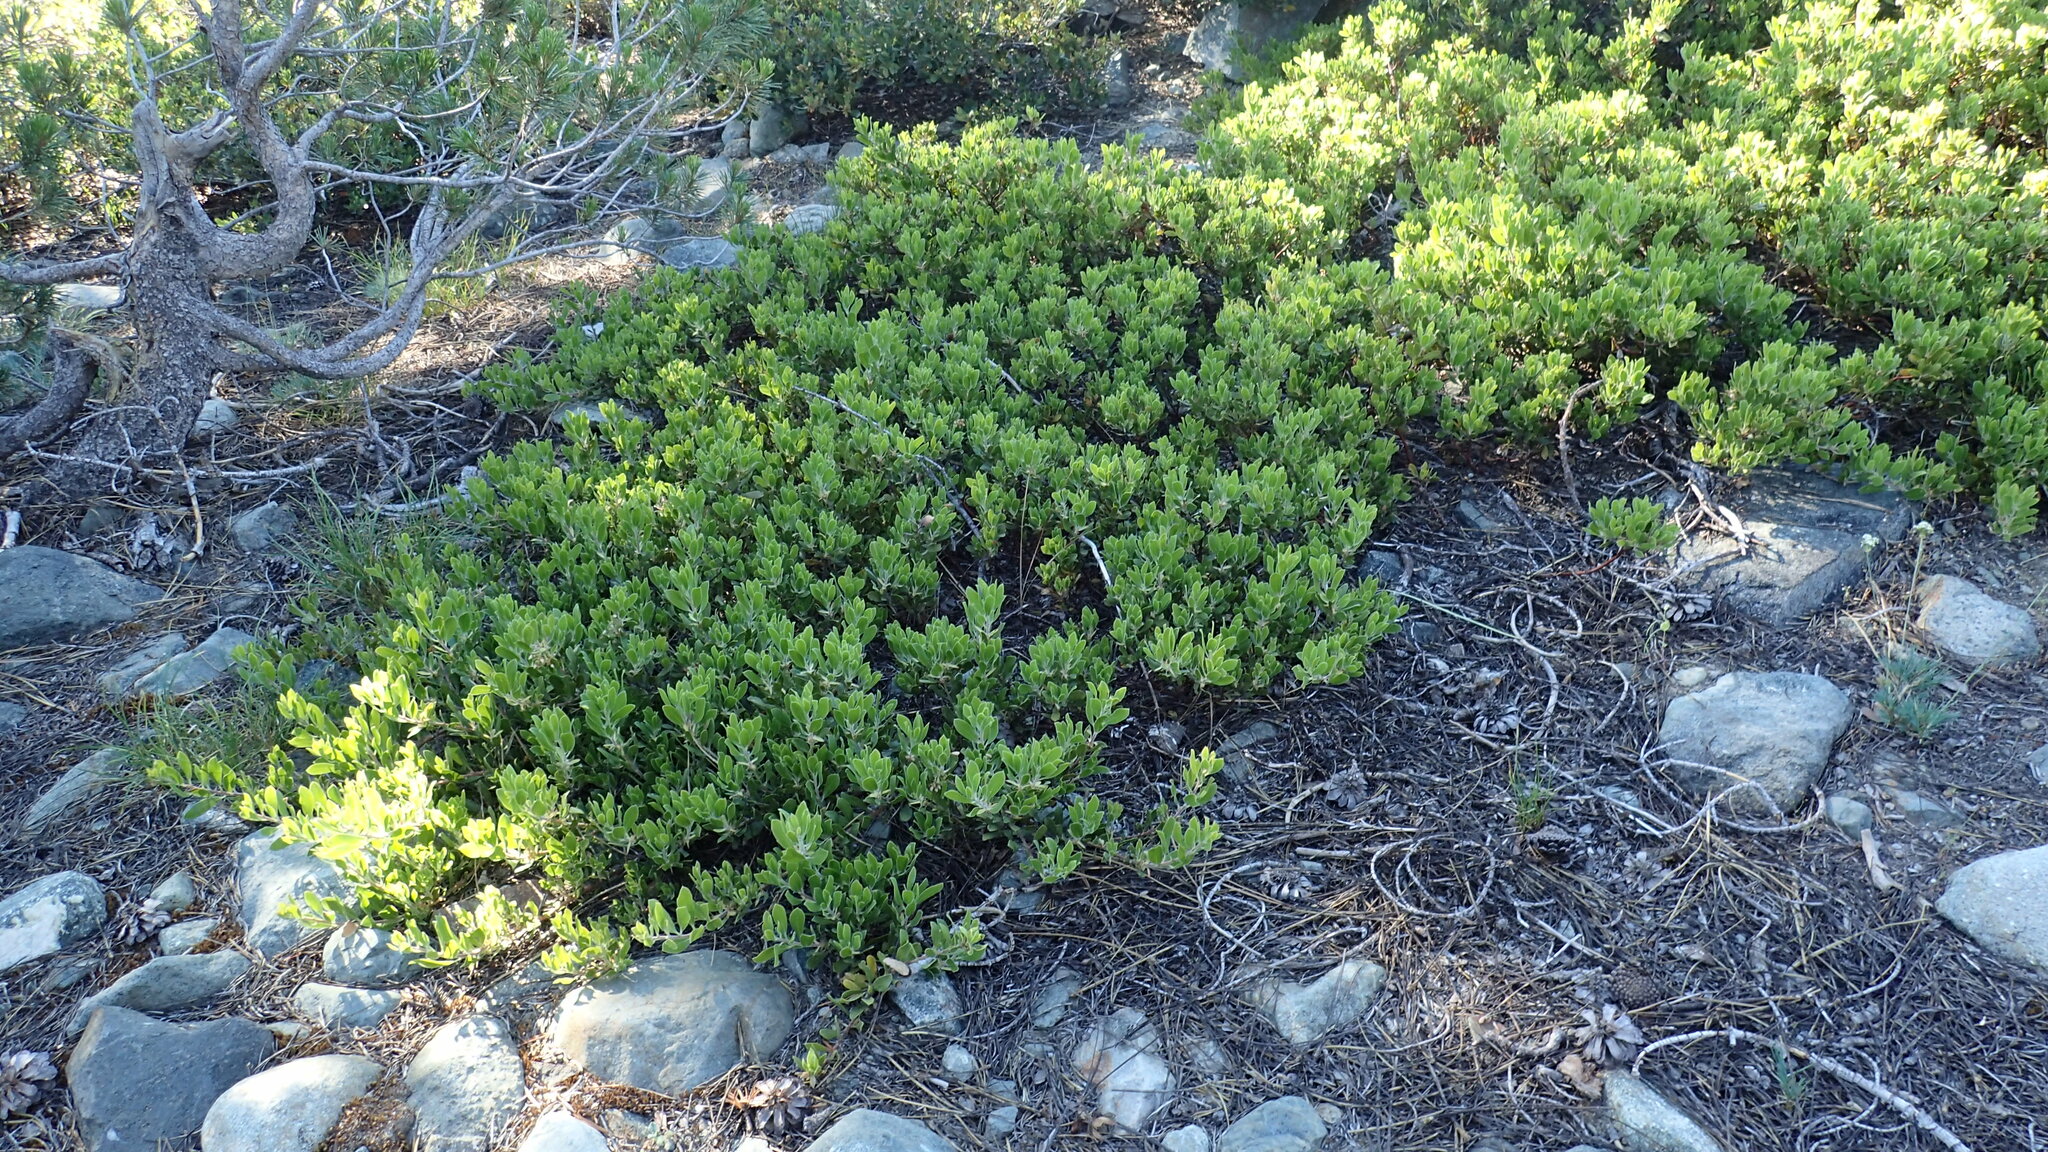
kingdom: Plantae
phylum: Tracheophyta
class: Magnoliopsida
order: Ericales
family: Ericaceae
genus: Arctostaphylos
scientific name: Arctostaphylos nevadensis
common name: Pinemat manzanita
